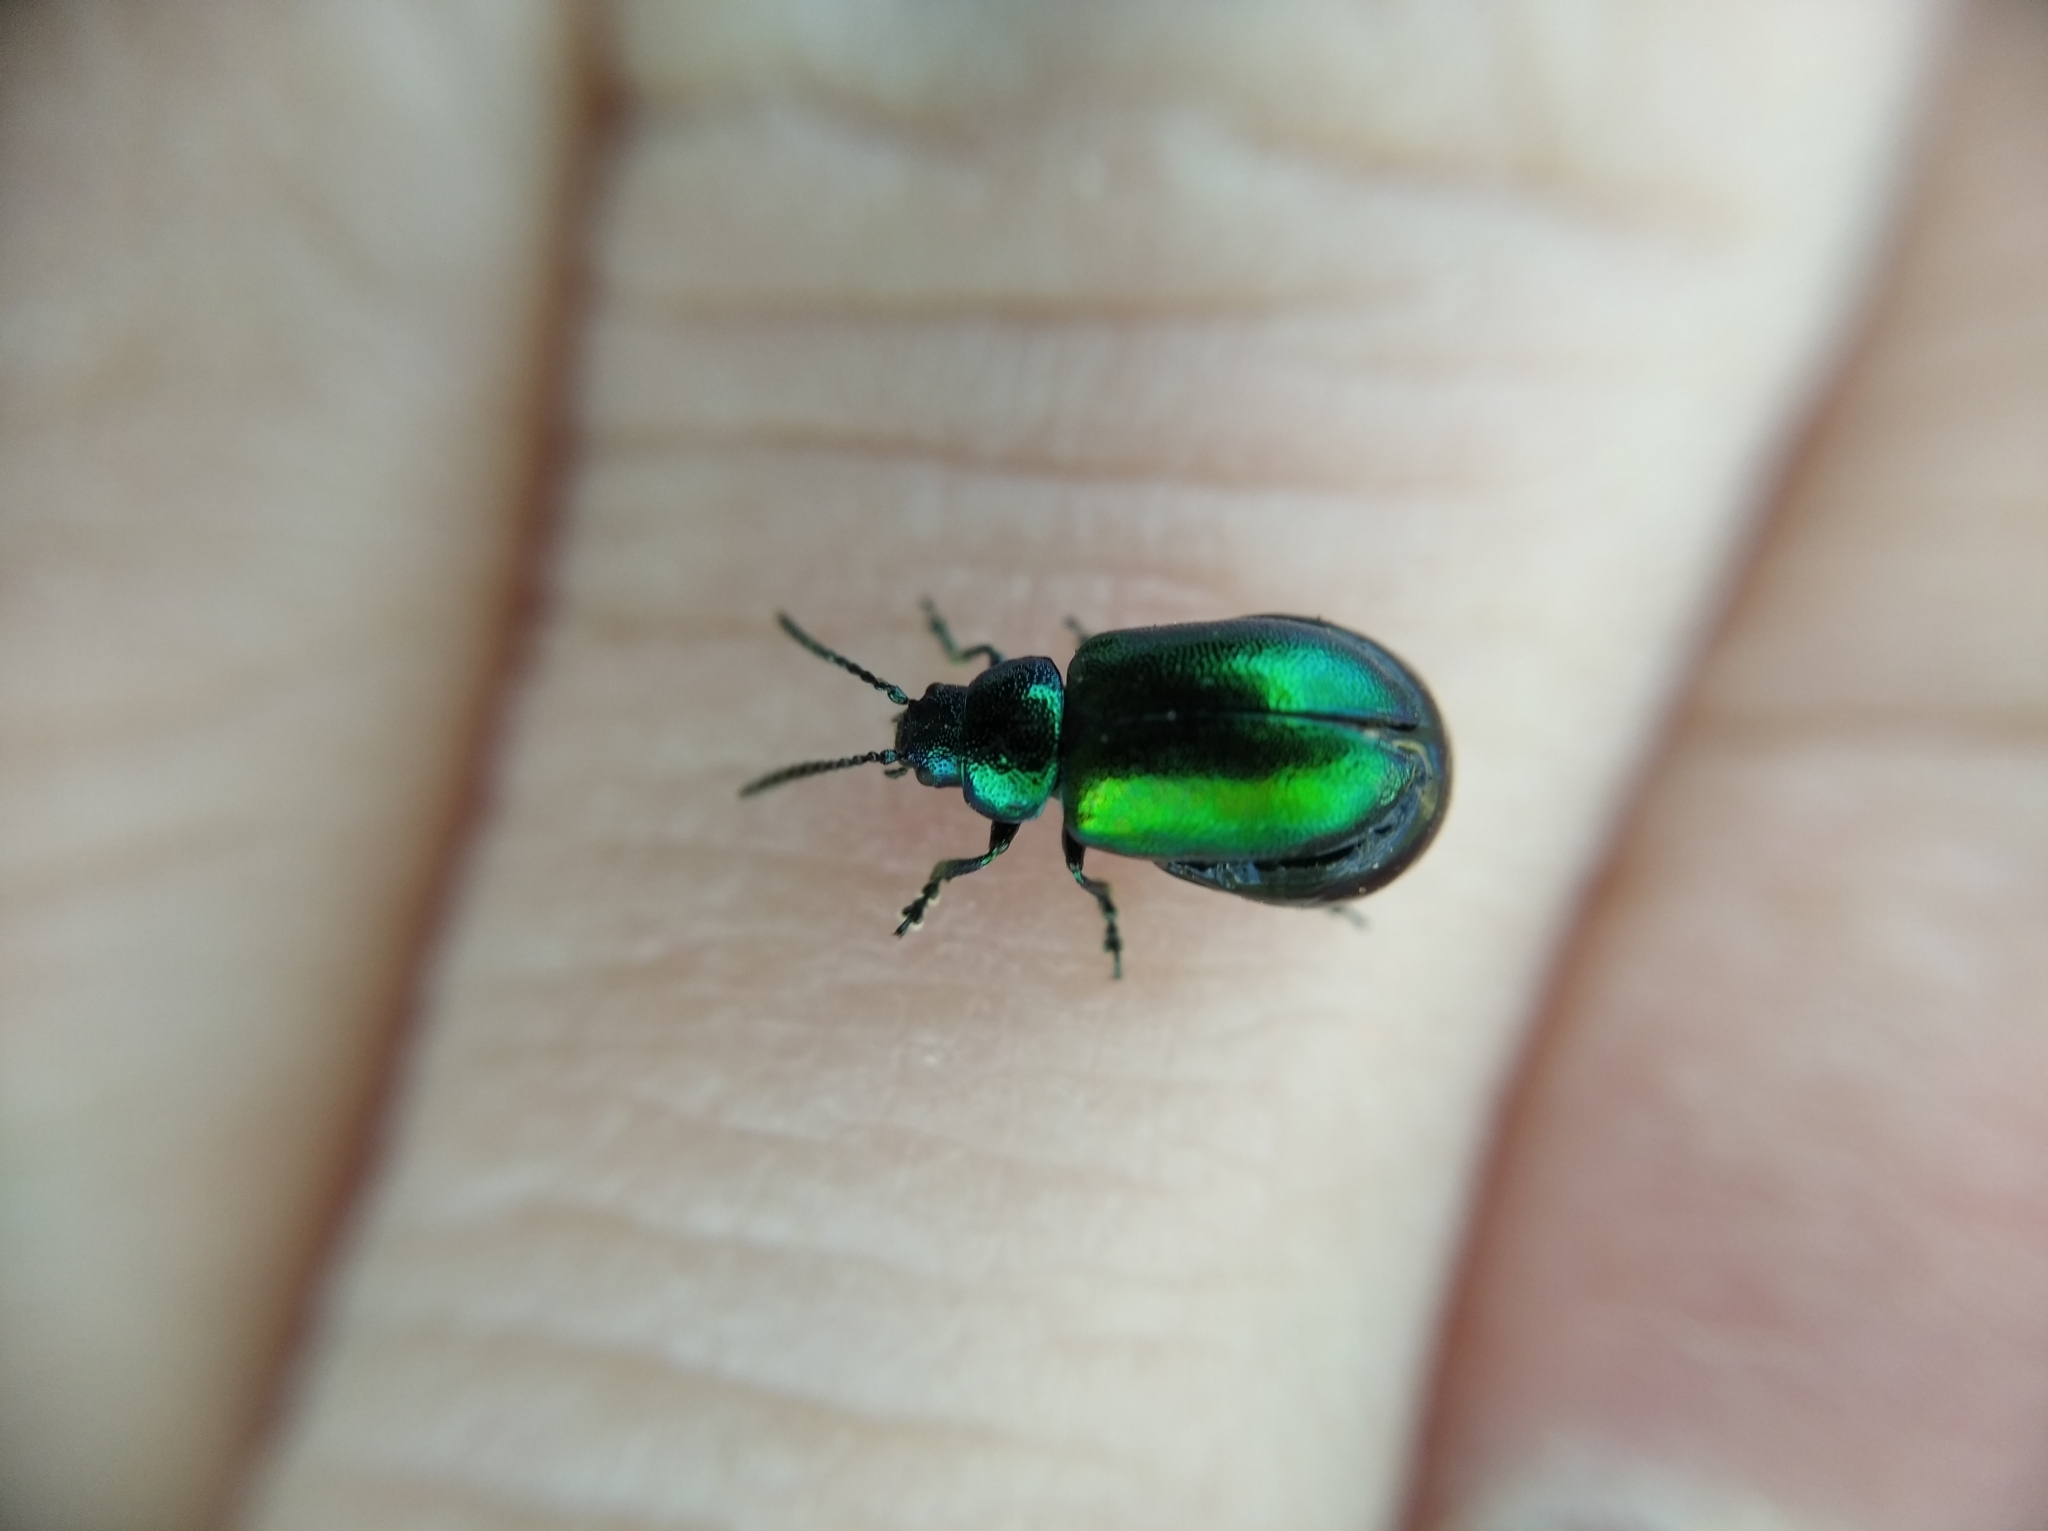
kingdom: Animalia
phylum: Arthropoda
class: Insecta
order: Coleoptera
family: Chrysomelidae
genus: Gastrophysa
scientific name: Gastrophysa viridula
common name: Green dock beetle
